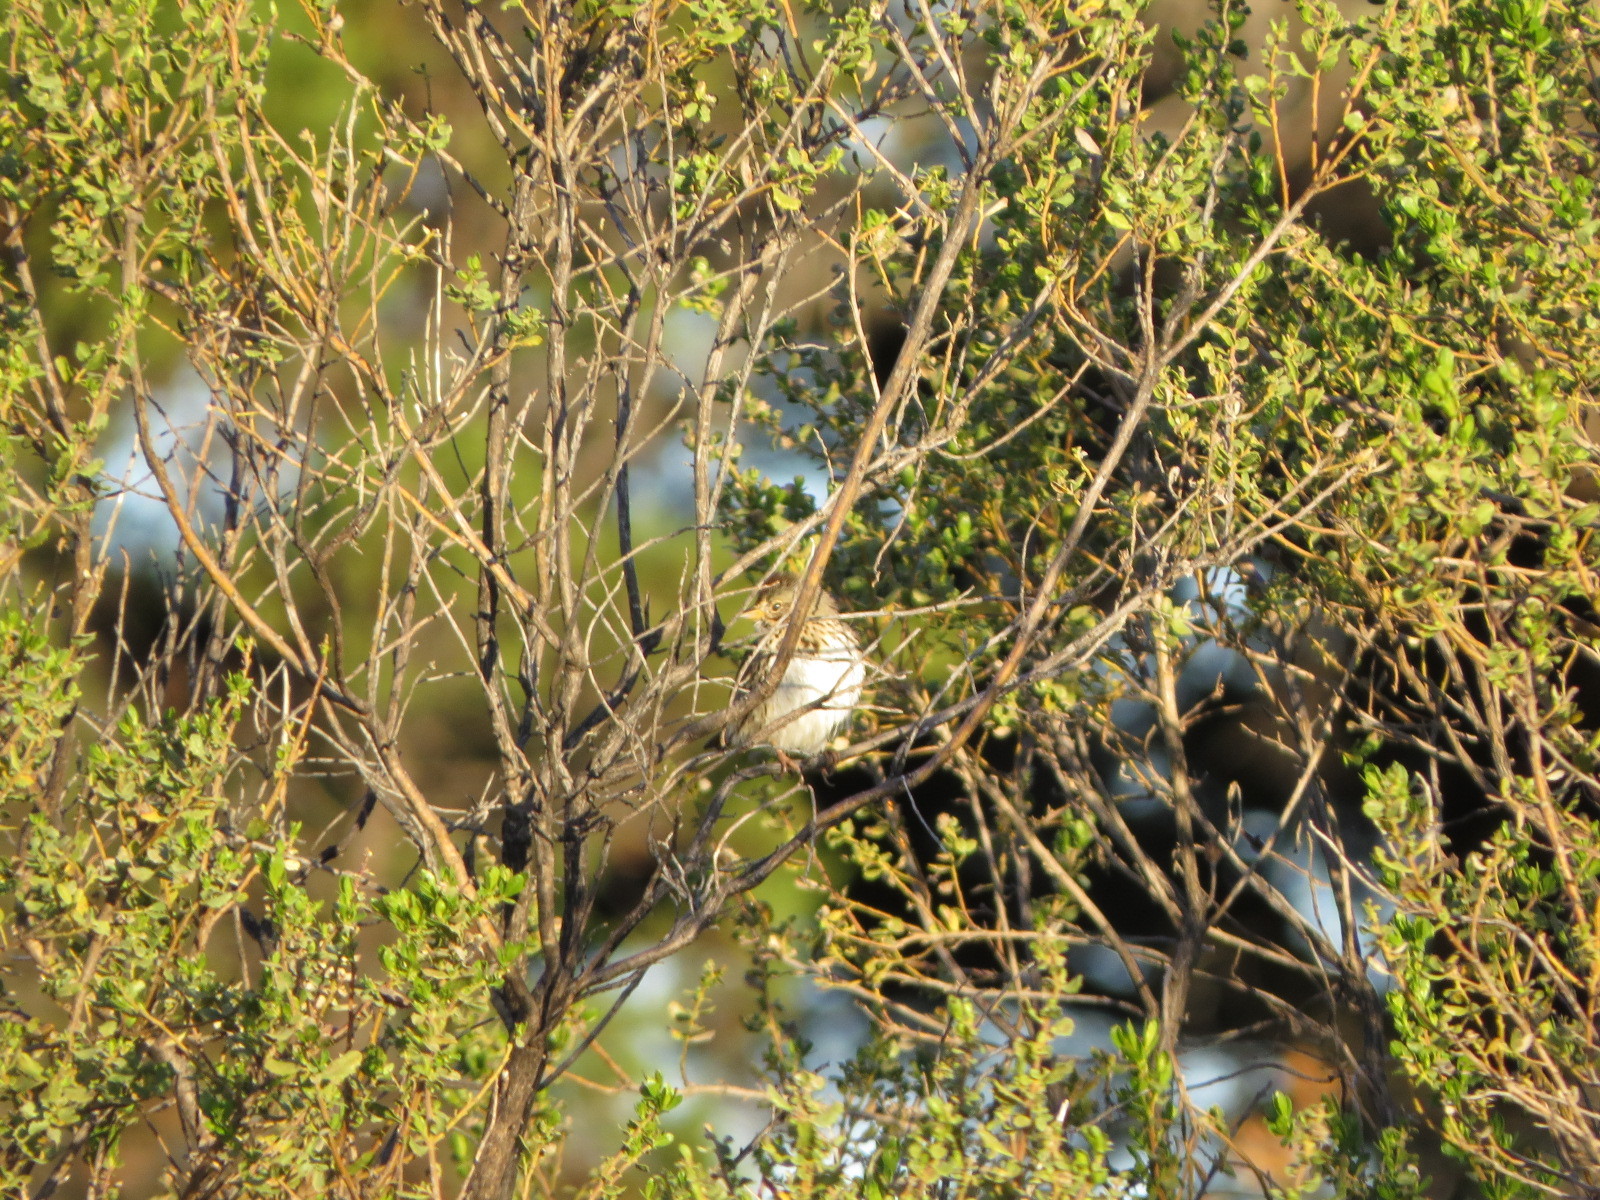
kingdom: Animalia
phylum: Chordata
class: Aves
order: Passeriformes
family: Passerellidae
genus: Melospiza
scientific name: Melospiza lincolnii
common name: Lincoln's sparrow
